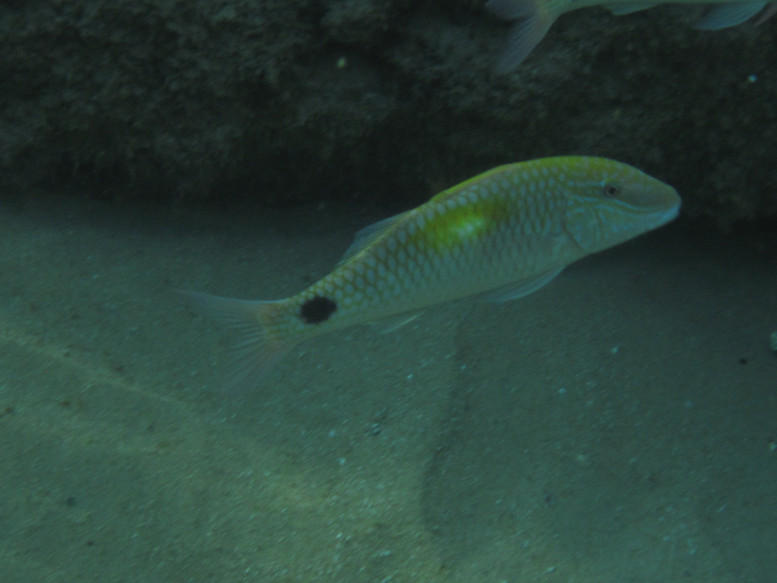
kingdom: Animalia
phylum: Chordata
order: Perciformes
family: Mullidae
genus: Parupeneus
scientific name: Parupeneus indicus
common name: Indian goatfish
